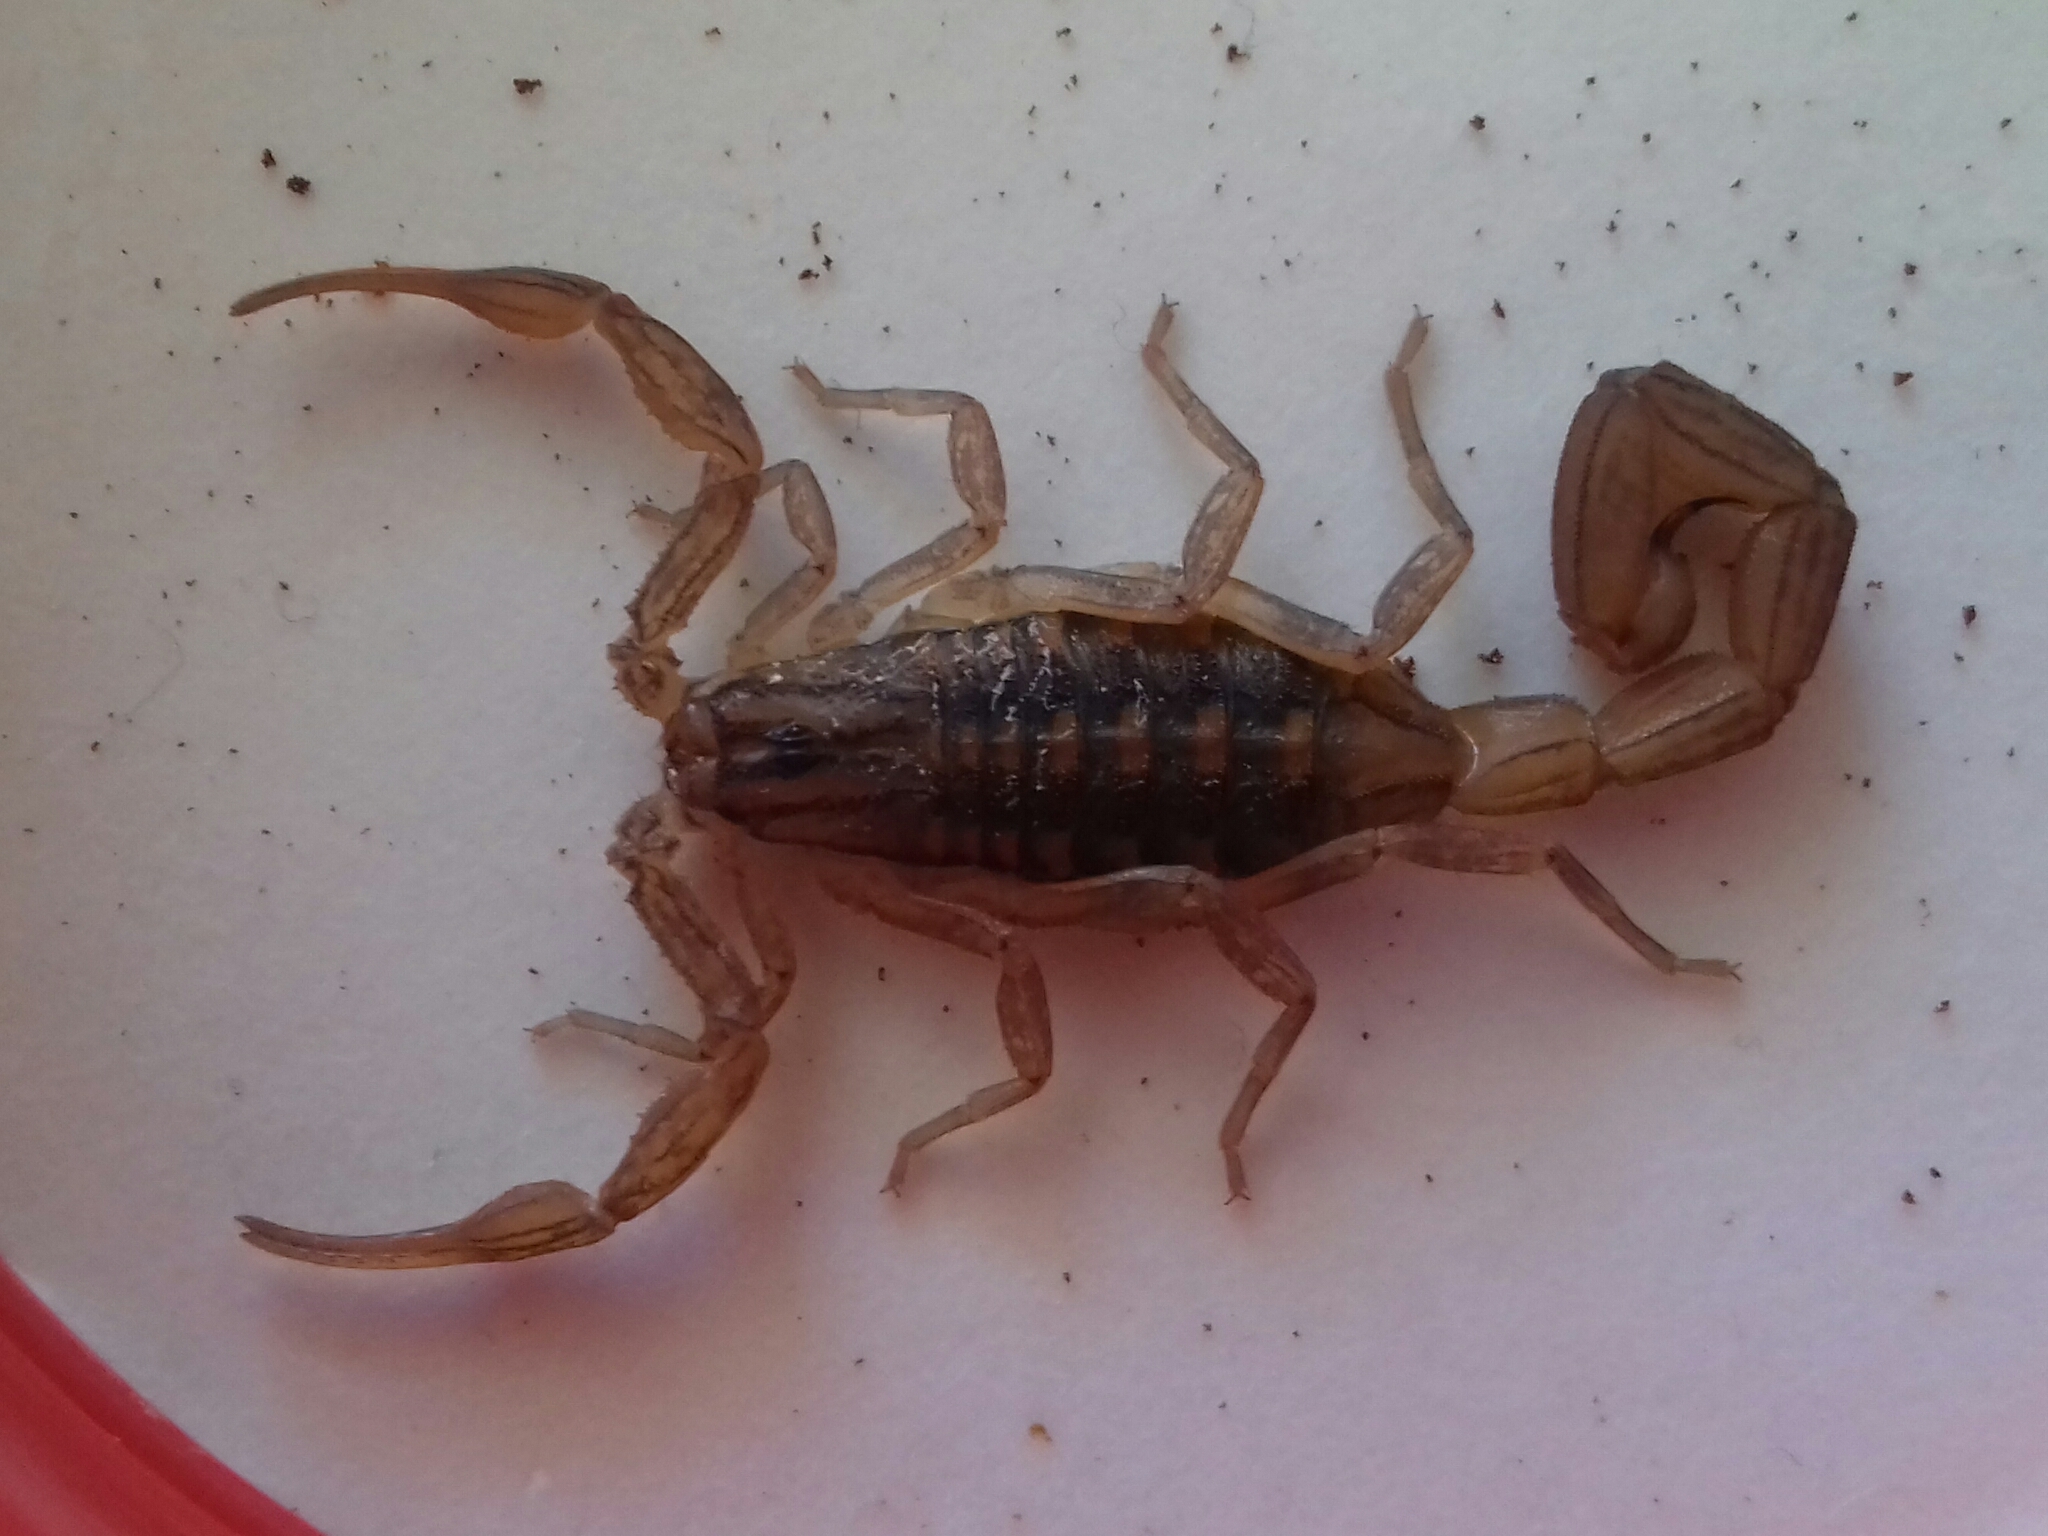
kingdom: Animalia
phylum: Arthropoda
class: Arachnida
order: Scorpiones
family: Buthidae
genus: Centruroides
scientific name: Centruroides limpidus
